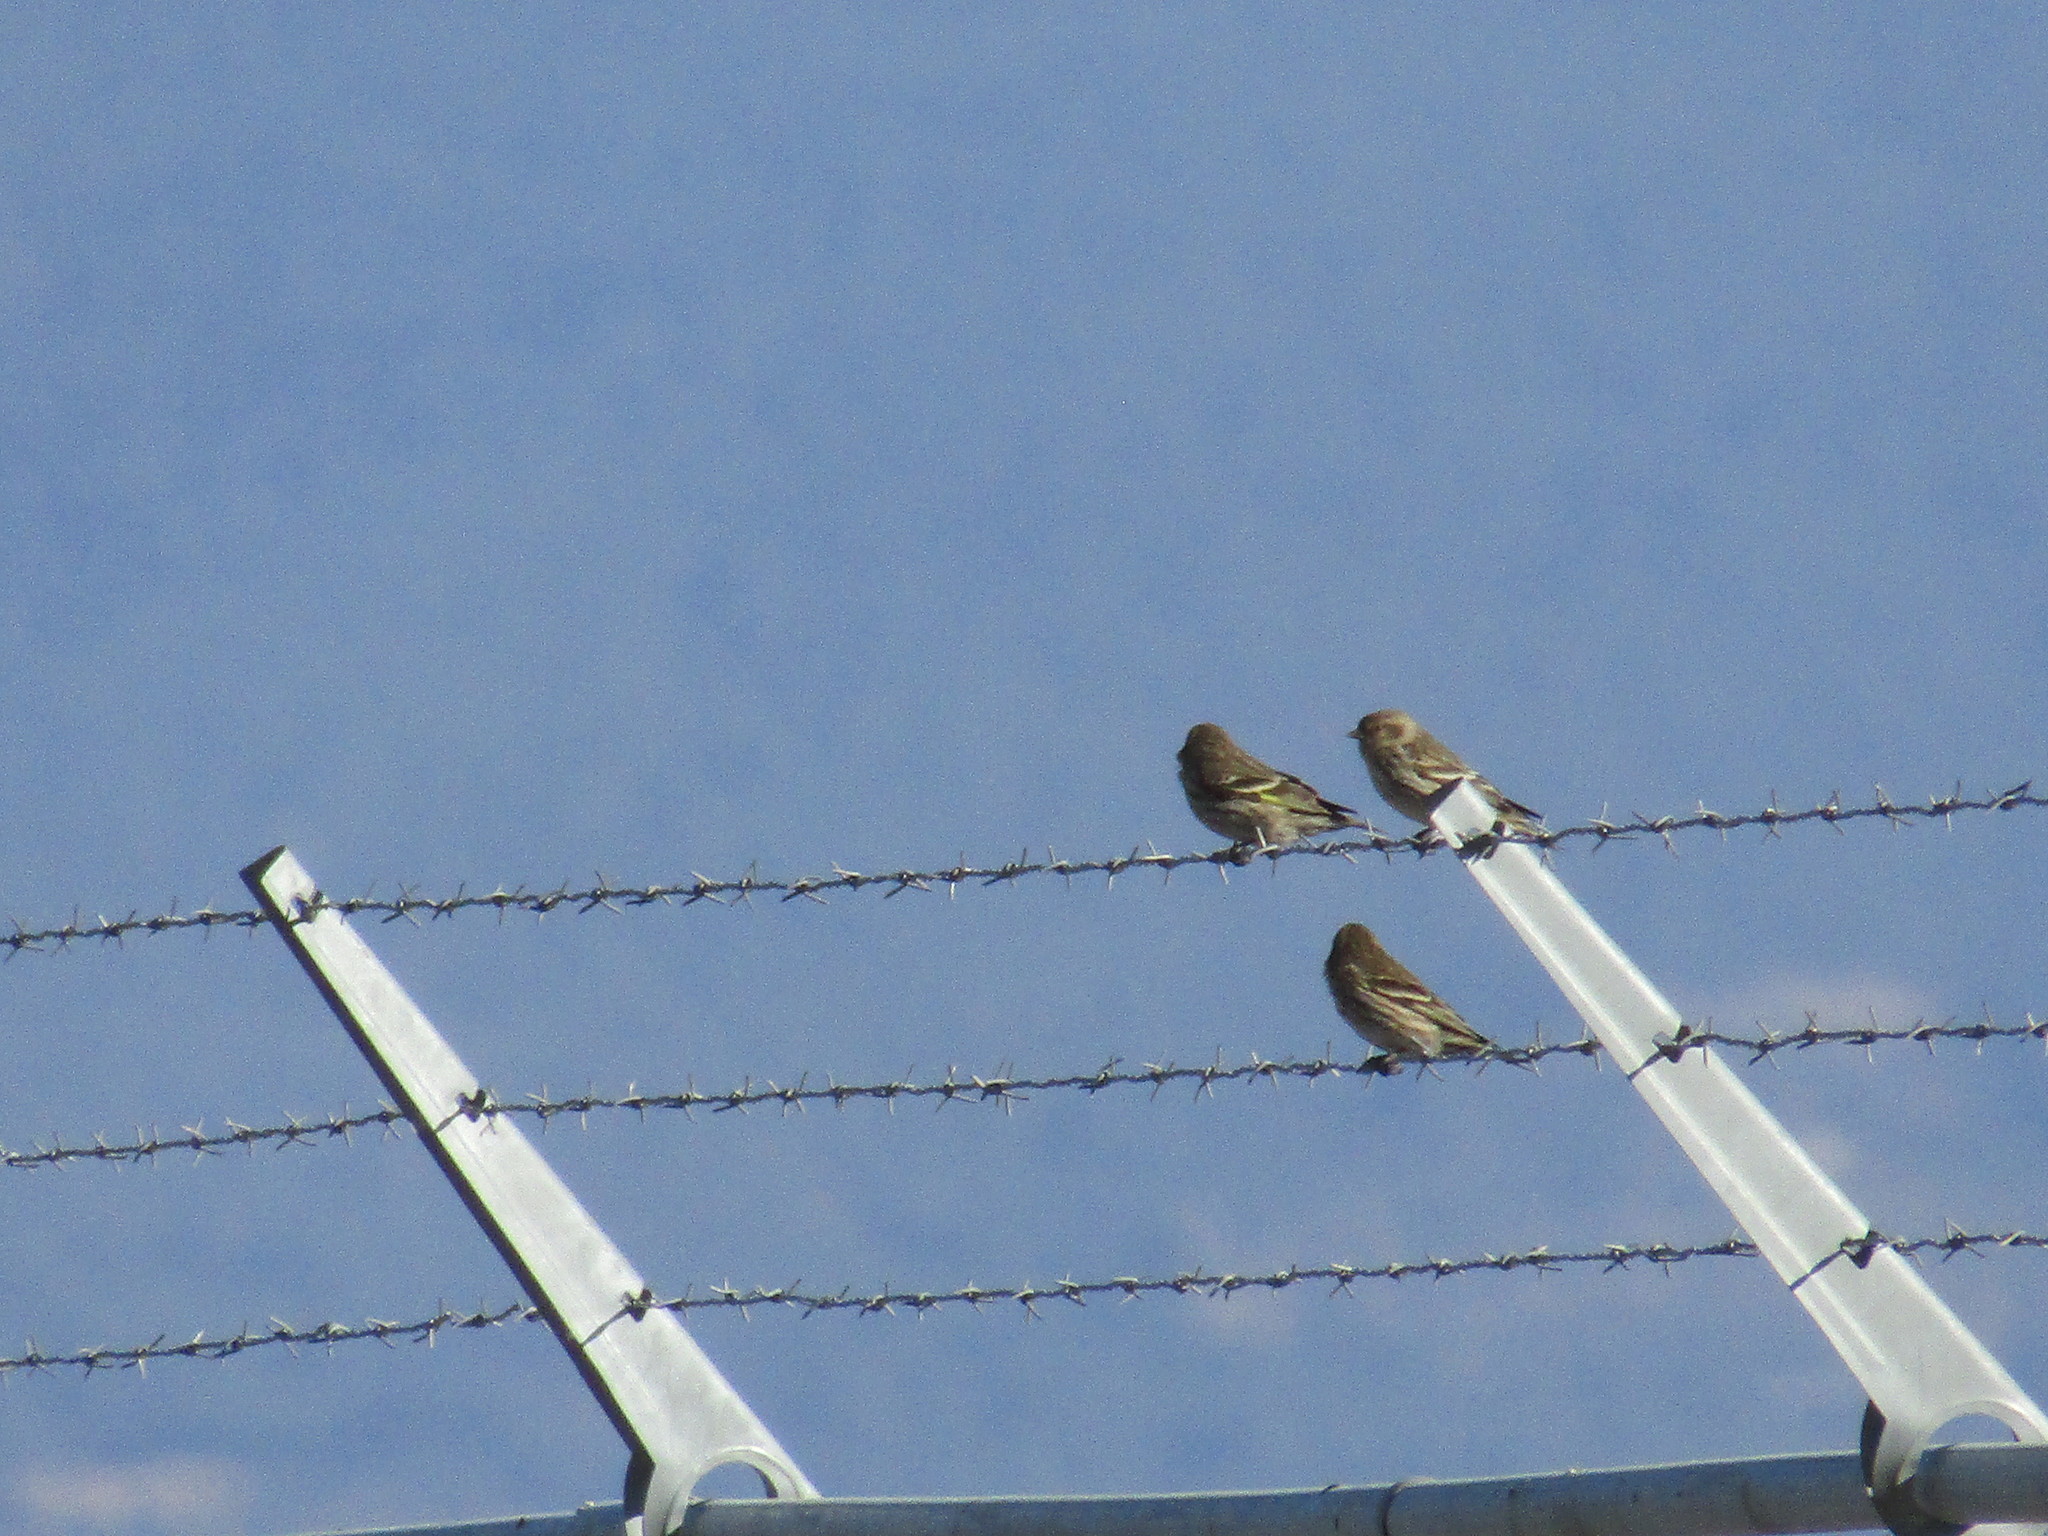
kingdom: Animalia
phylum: Chordata
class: Aves
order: Passeriformes
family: Fringillidae
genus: Spinus
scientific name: Spinus pinus
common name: Pine siskin
